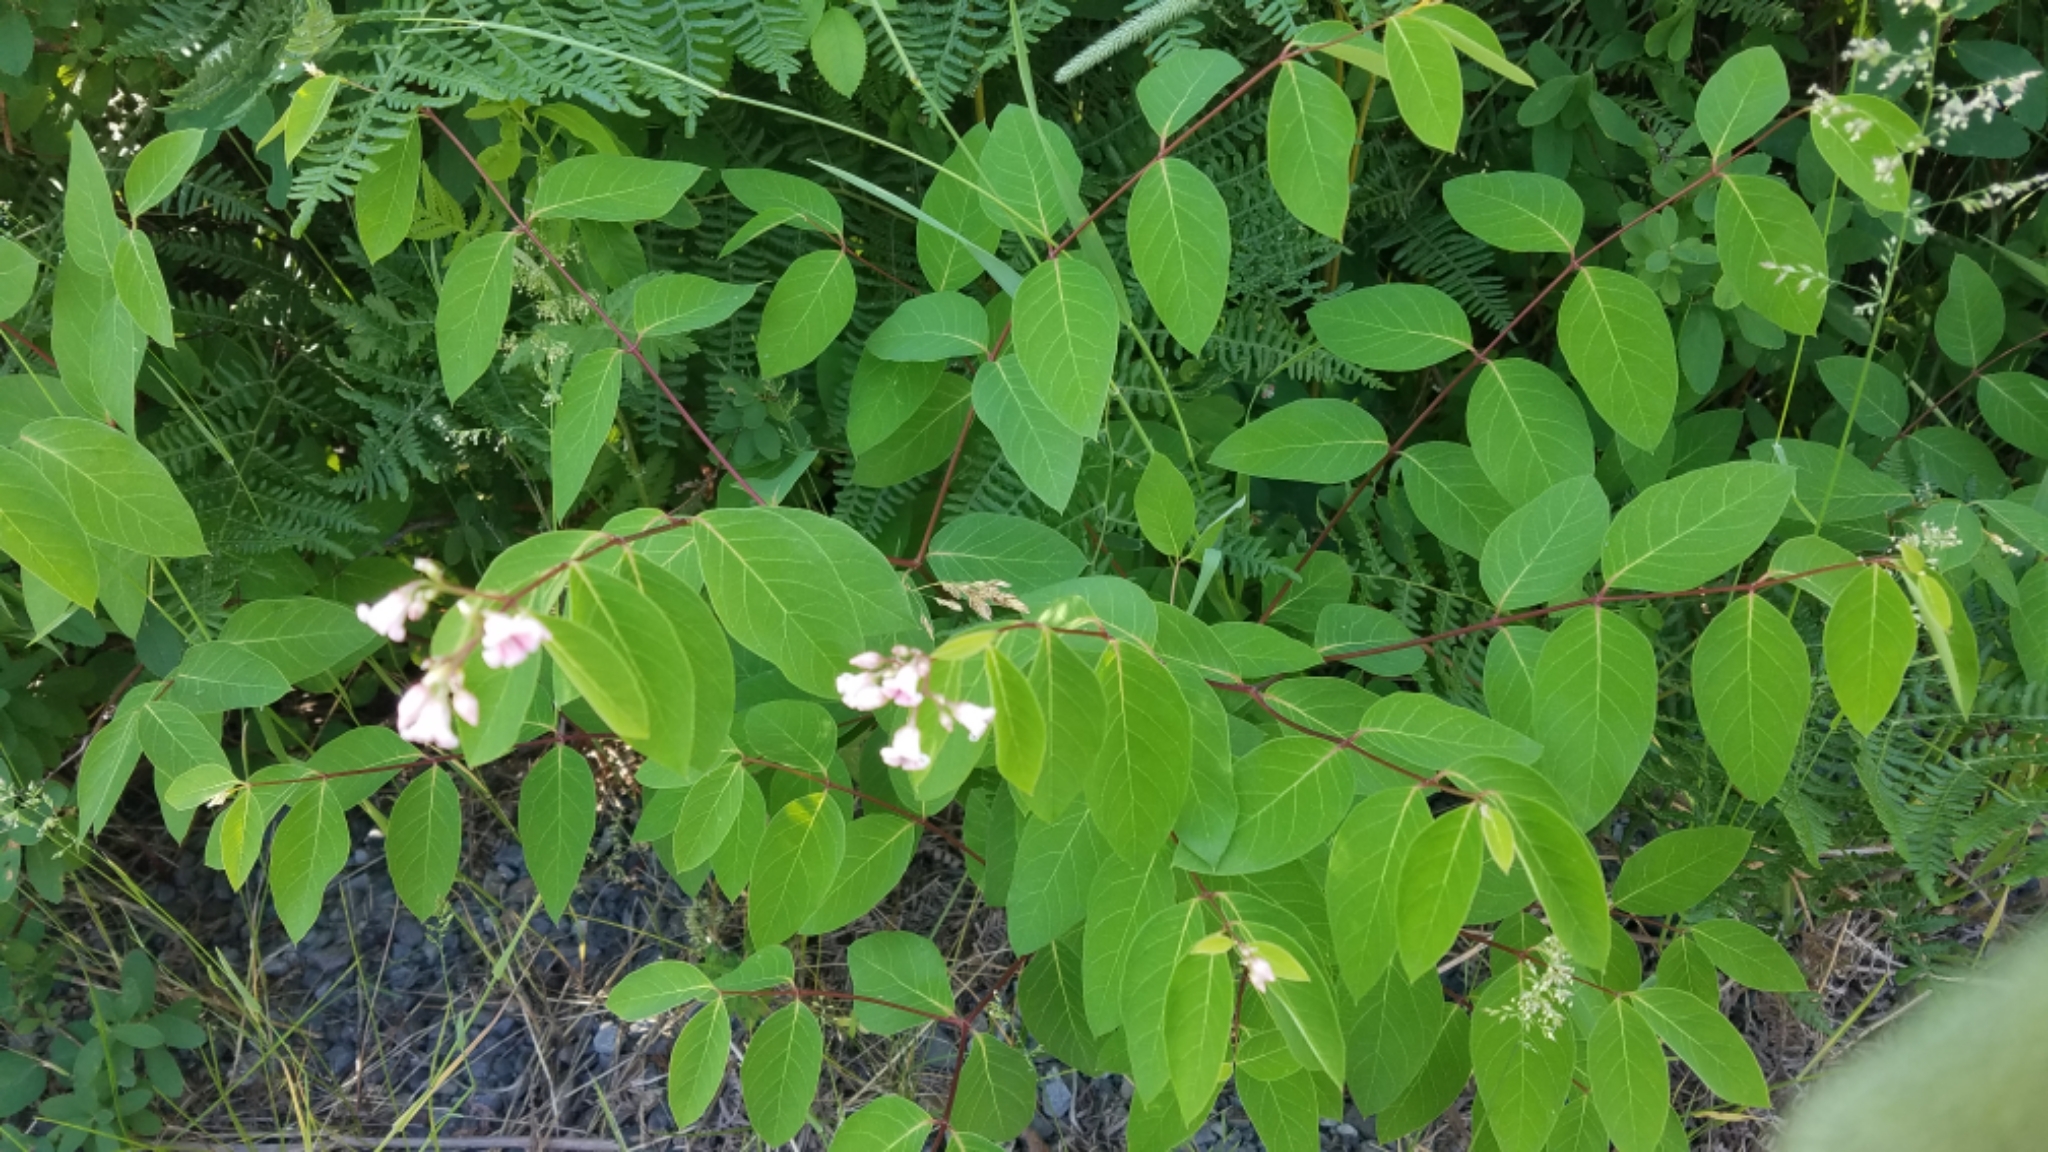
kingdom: Plantae
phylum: Tracheophyta
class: Magnoliopsida
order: Gentianales
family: Apocynaceae
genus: Apocynum
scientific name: Apocynum androsaemifolium
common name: Spreading dogbane
